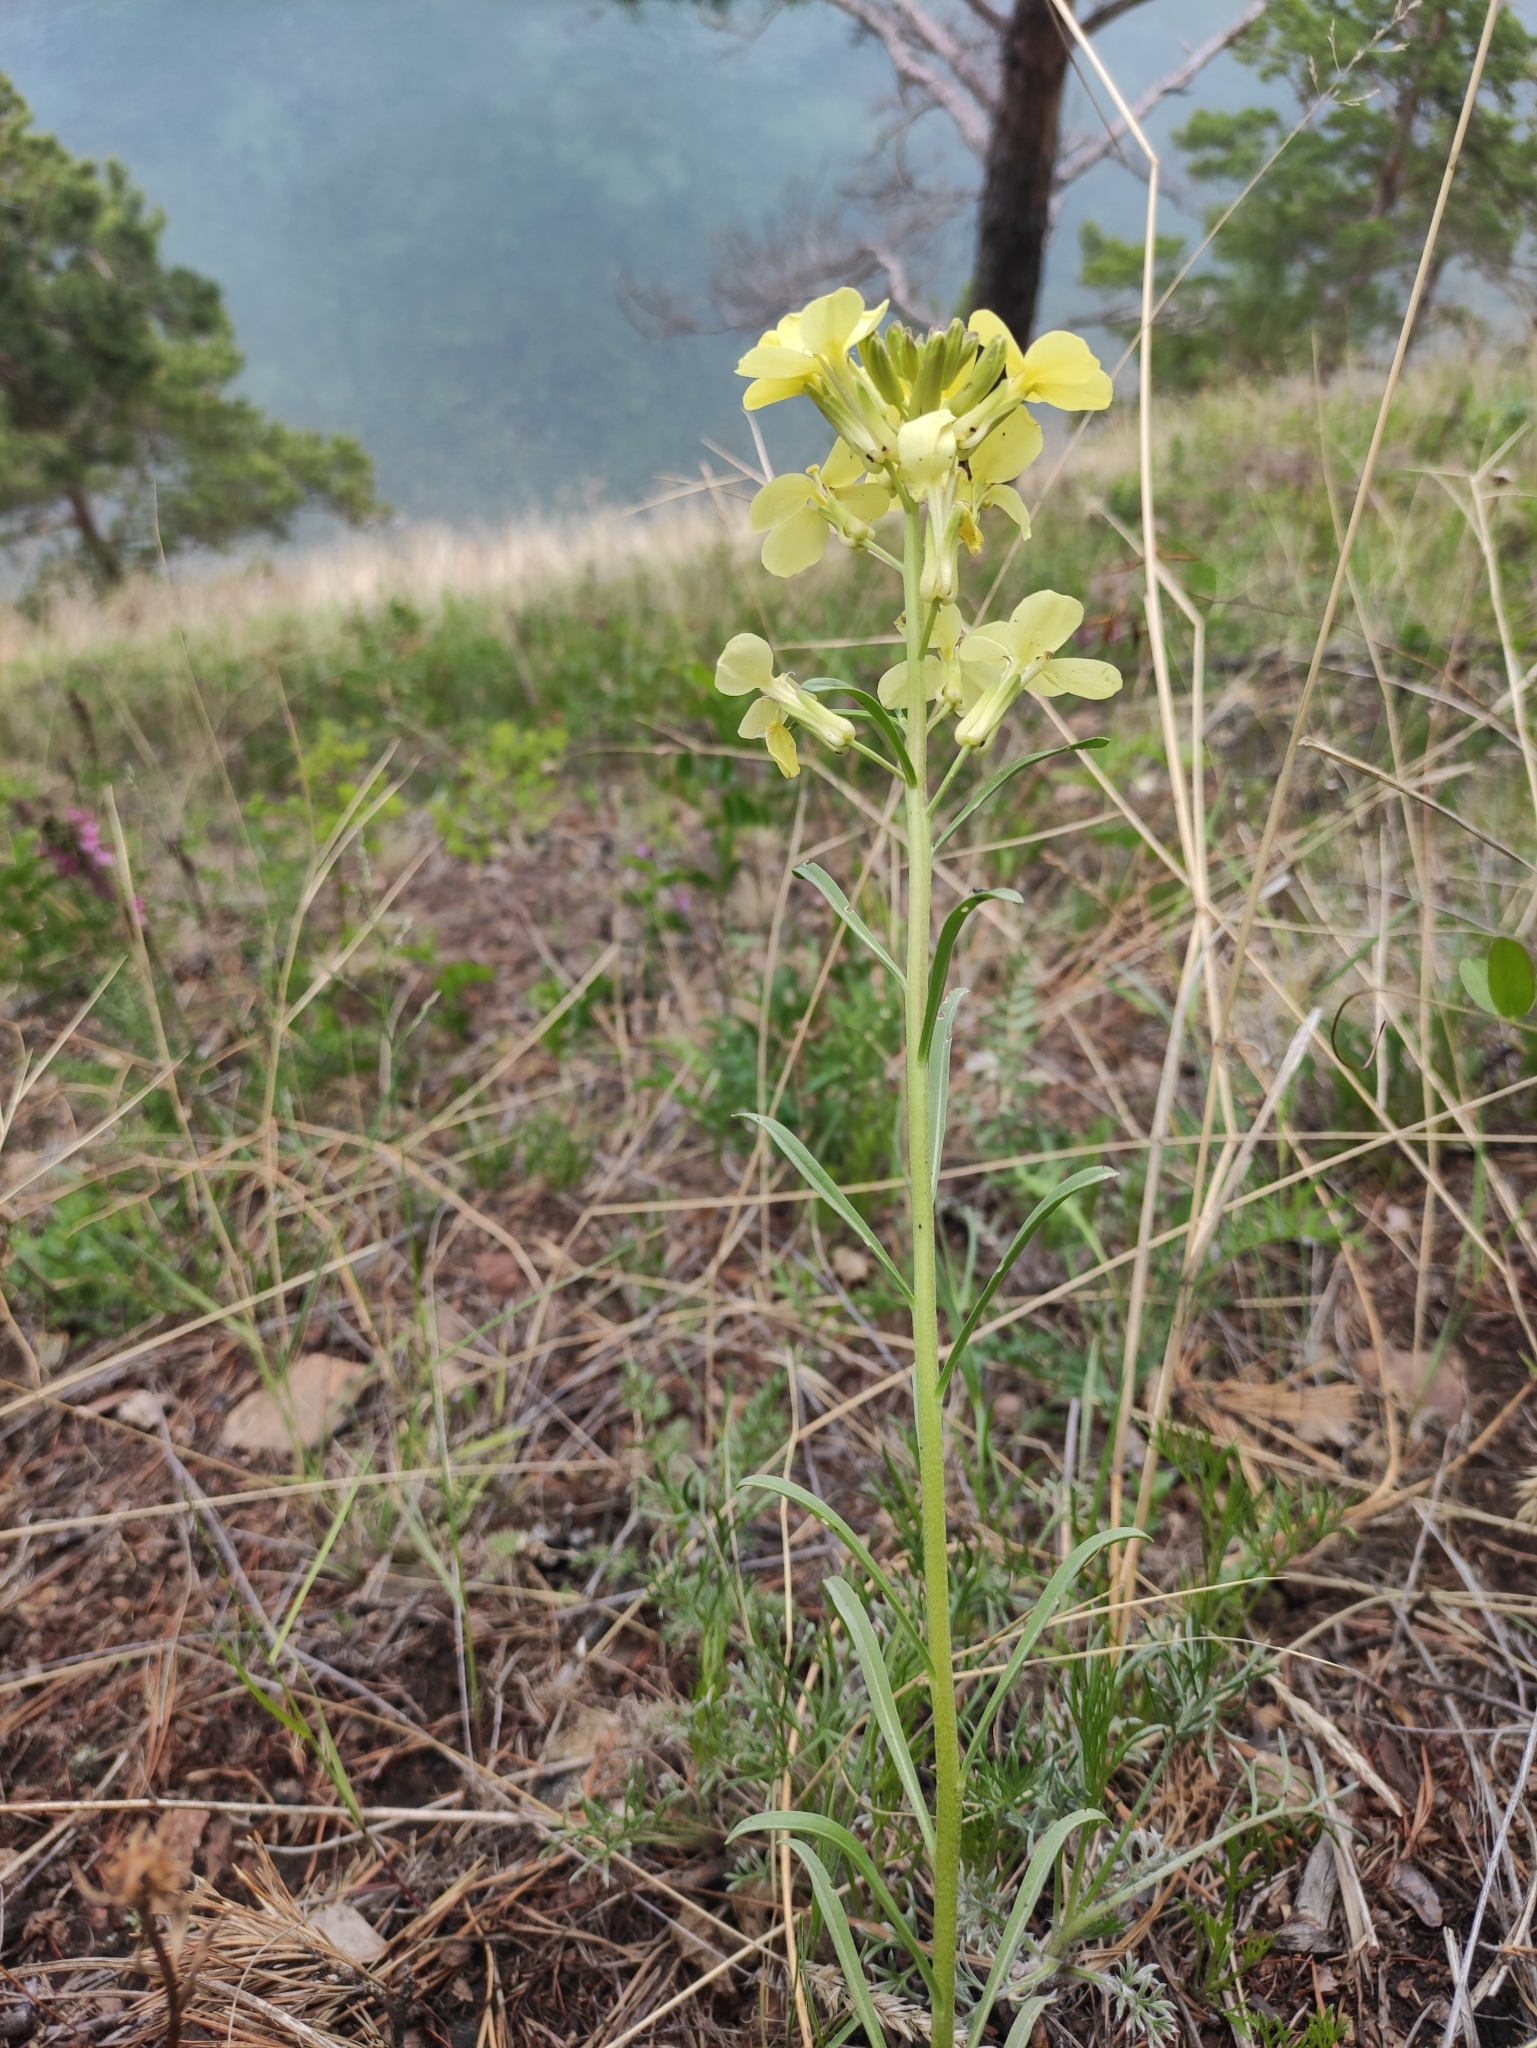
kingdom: Plantae
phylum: Tracheophyta
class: Magnoliopsida
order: Brassicales
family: Brassicaceae
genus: Erysimum
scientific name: Erysimum flavum
